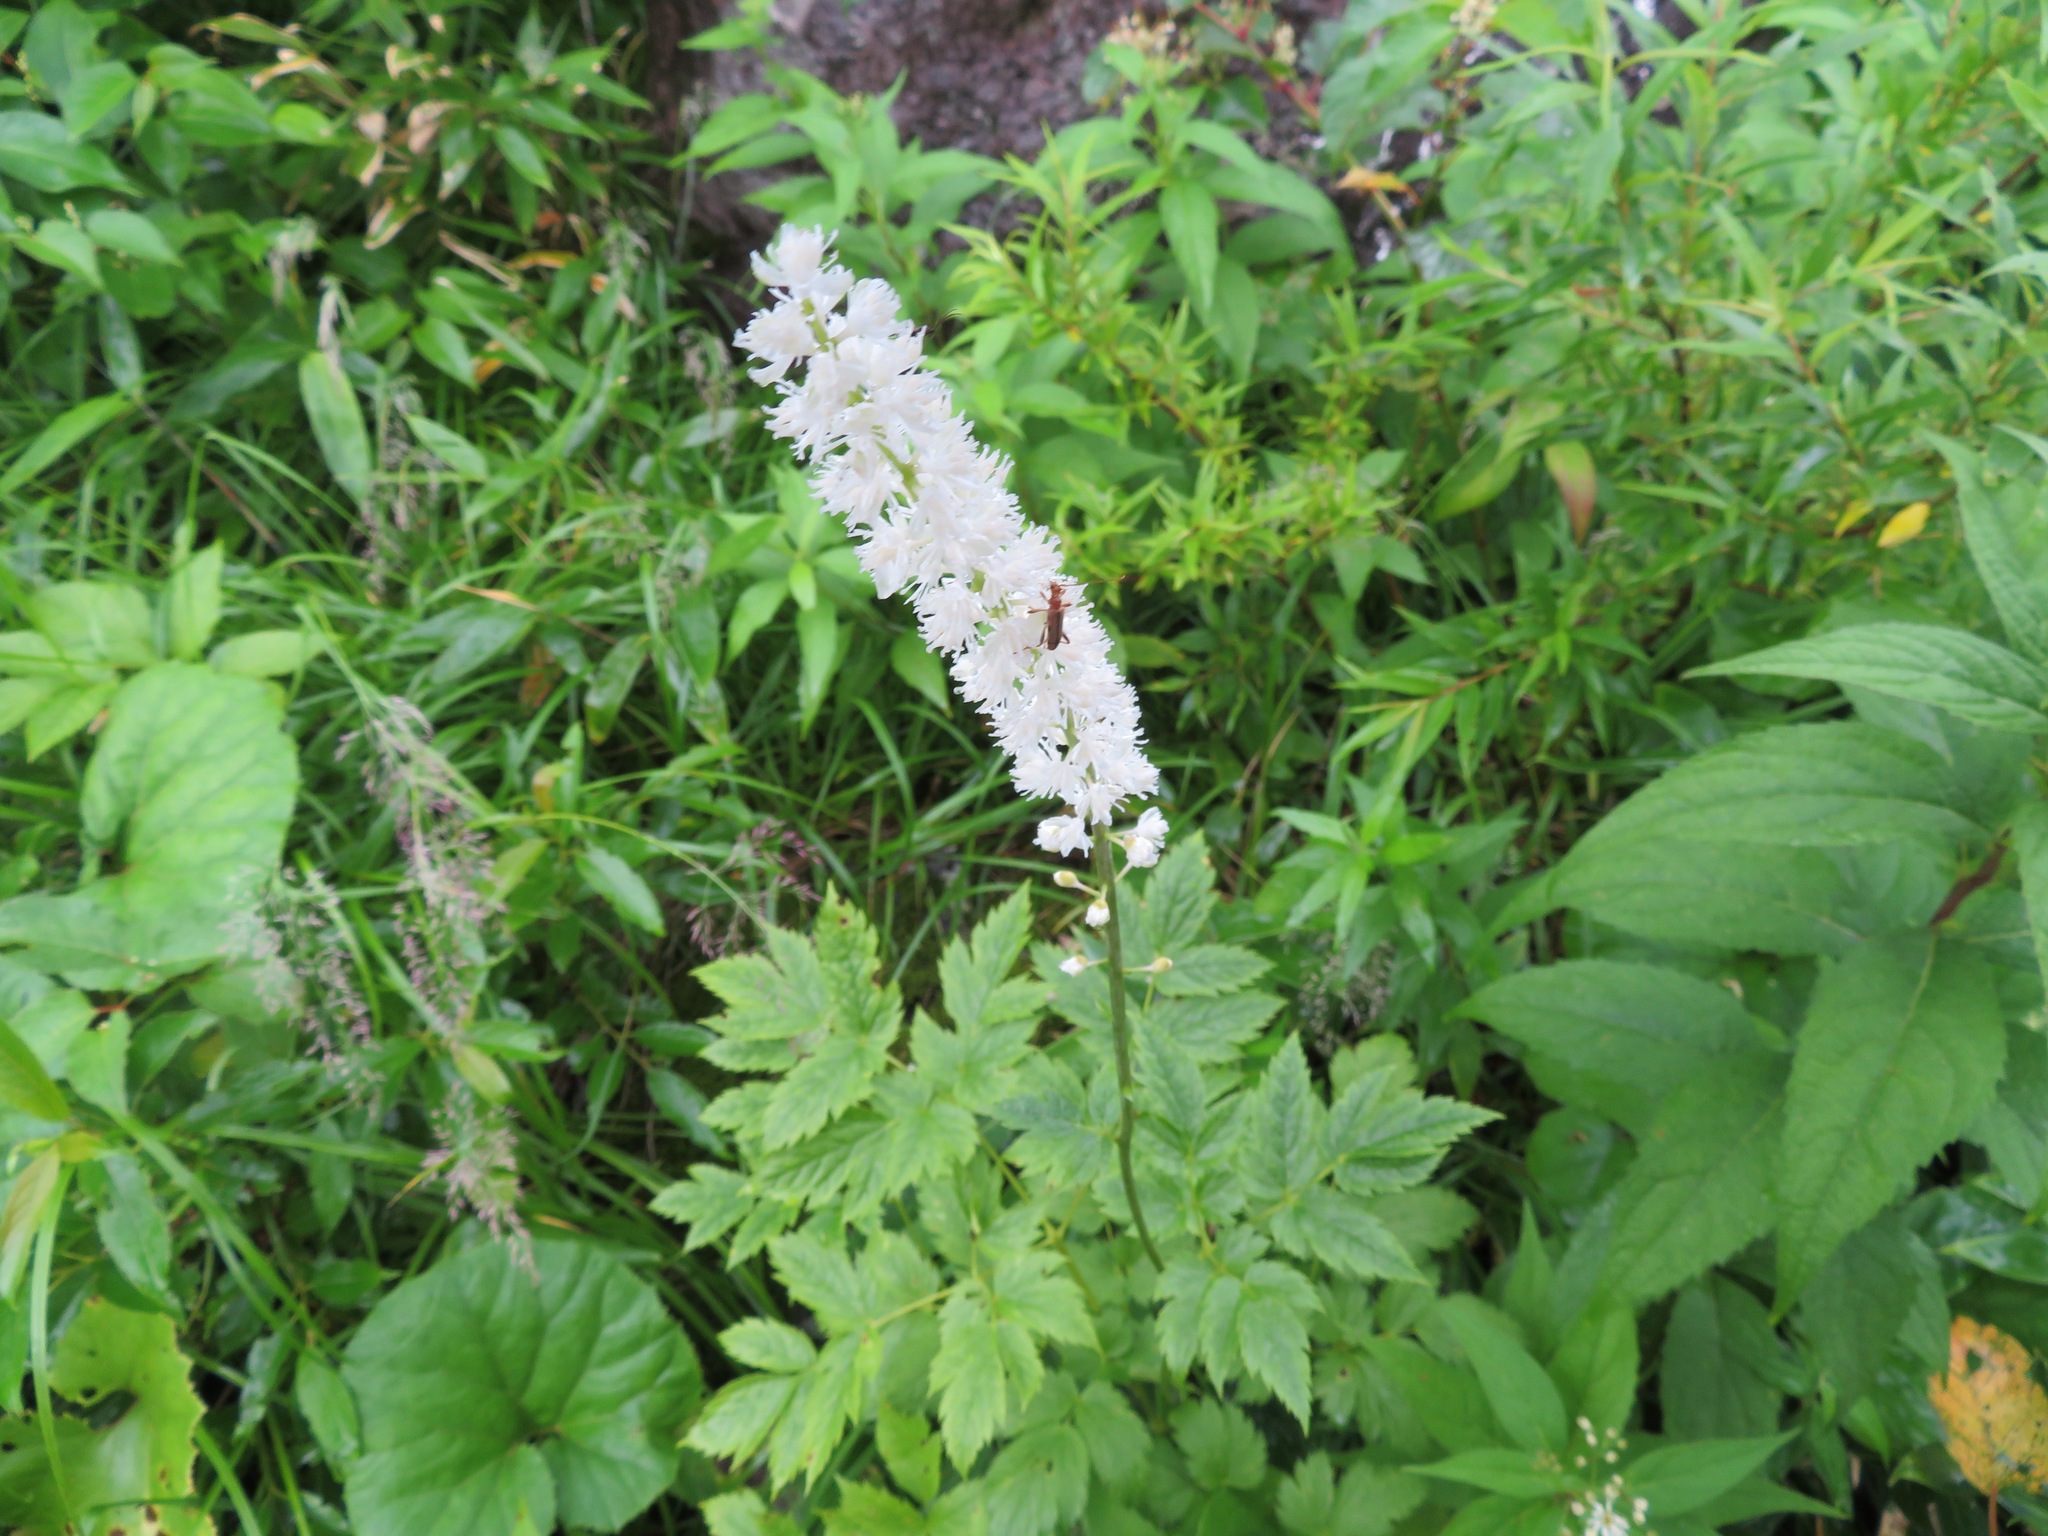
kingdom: Plantae
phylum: Tracheophyta
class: Magnoliopsida
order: Ranunculales
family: Ranunculaceae
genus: Actaea
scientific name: Actaea simplex
